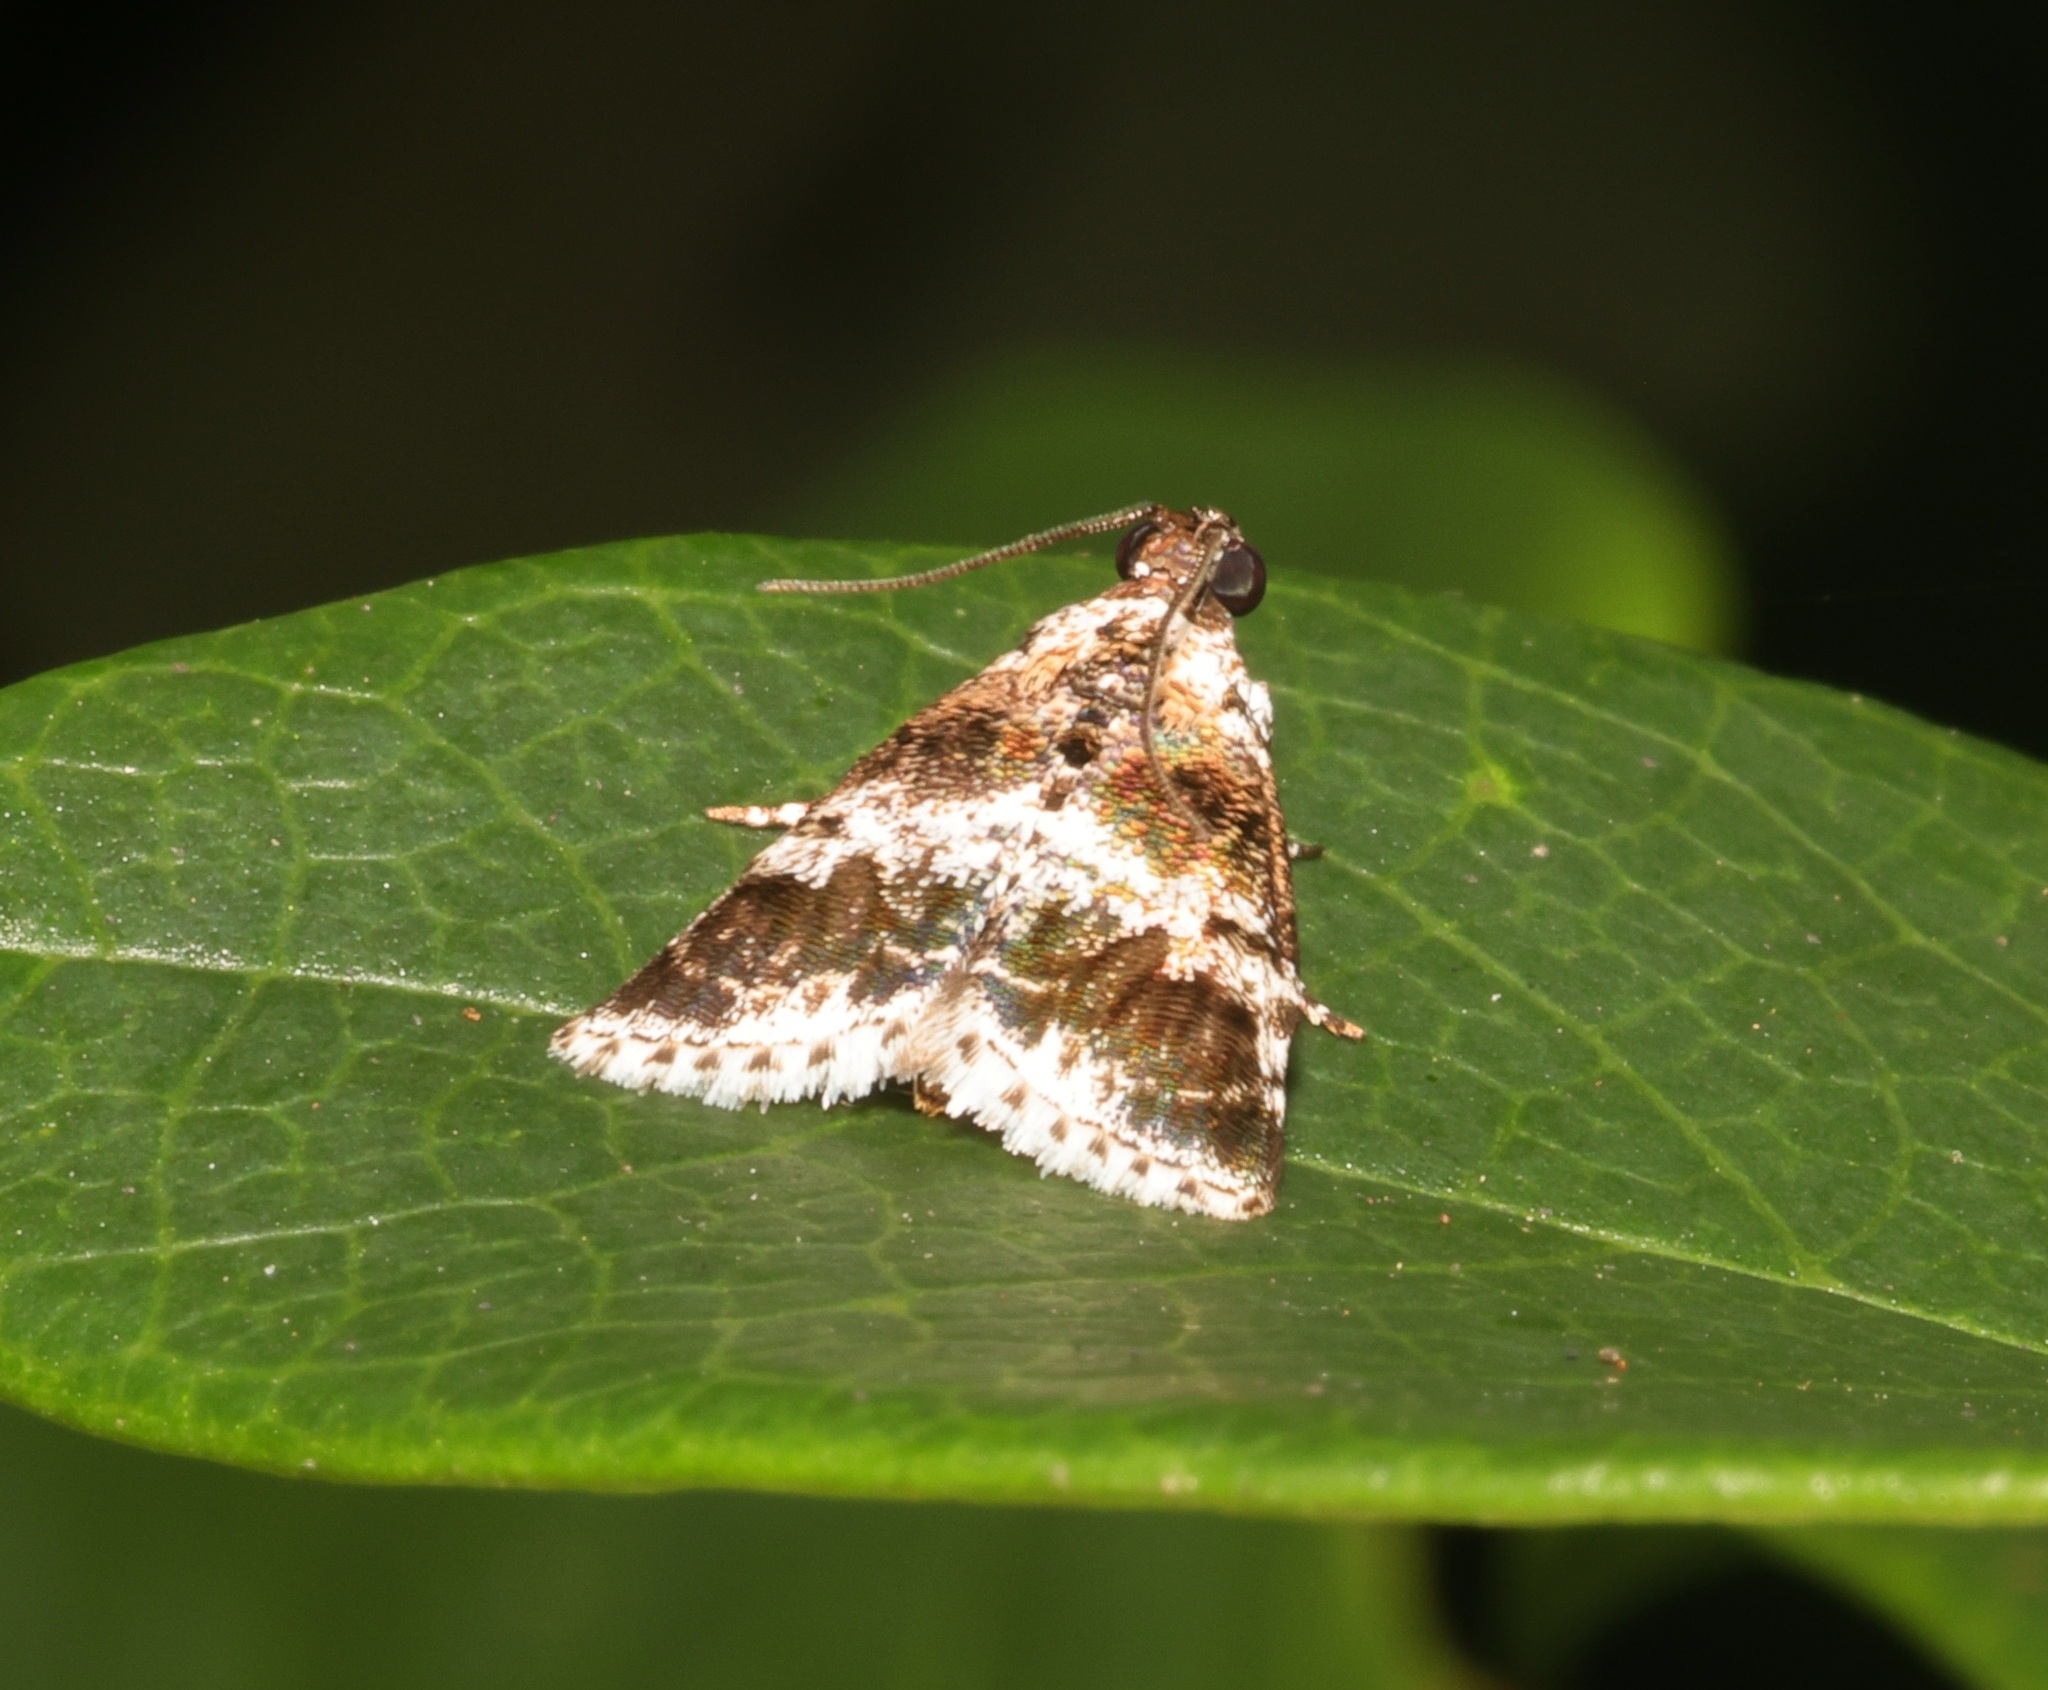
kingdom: Animalia
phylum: Arthropoda
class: Insecta
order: Lepidoptera
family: Pyralidae
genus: Salma
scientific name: Salma
